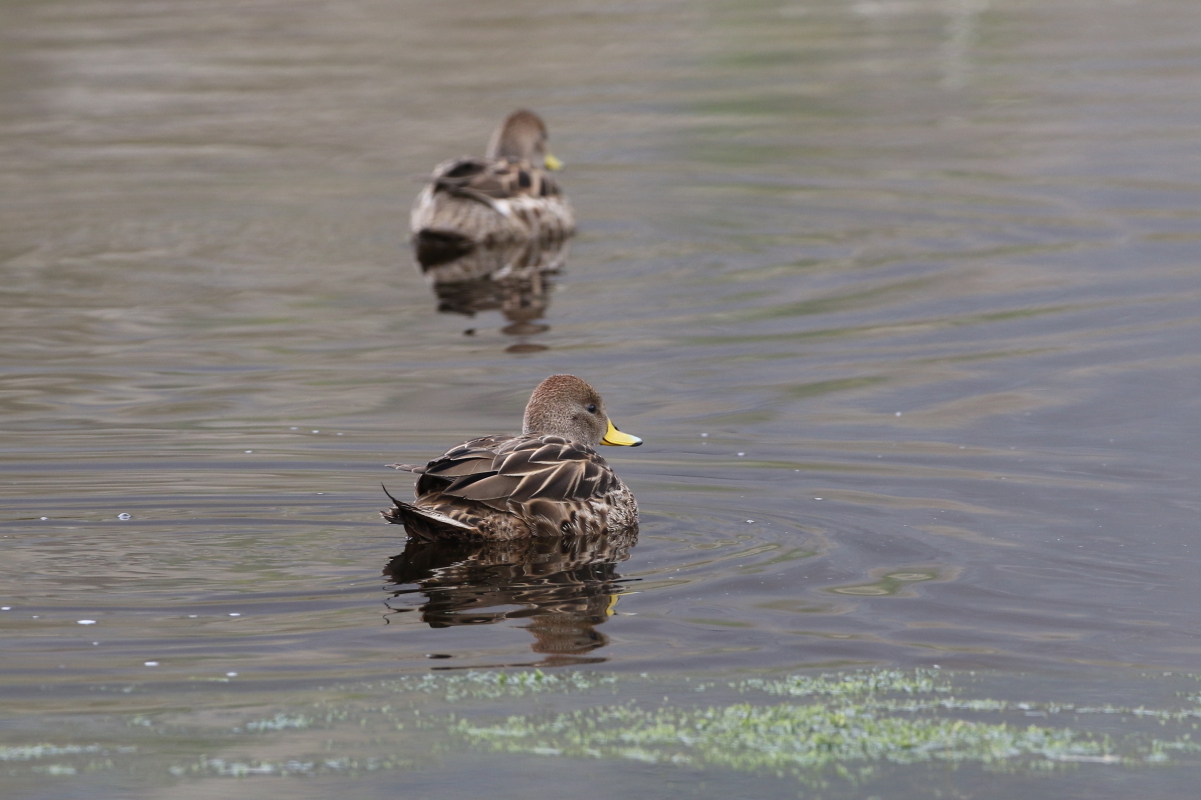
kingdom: Animalia
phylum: Chordata
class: Aves
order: Anseriformes
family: Anatidae
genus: Anas
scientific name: Anas georgica
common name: Yellow-billed pintail
